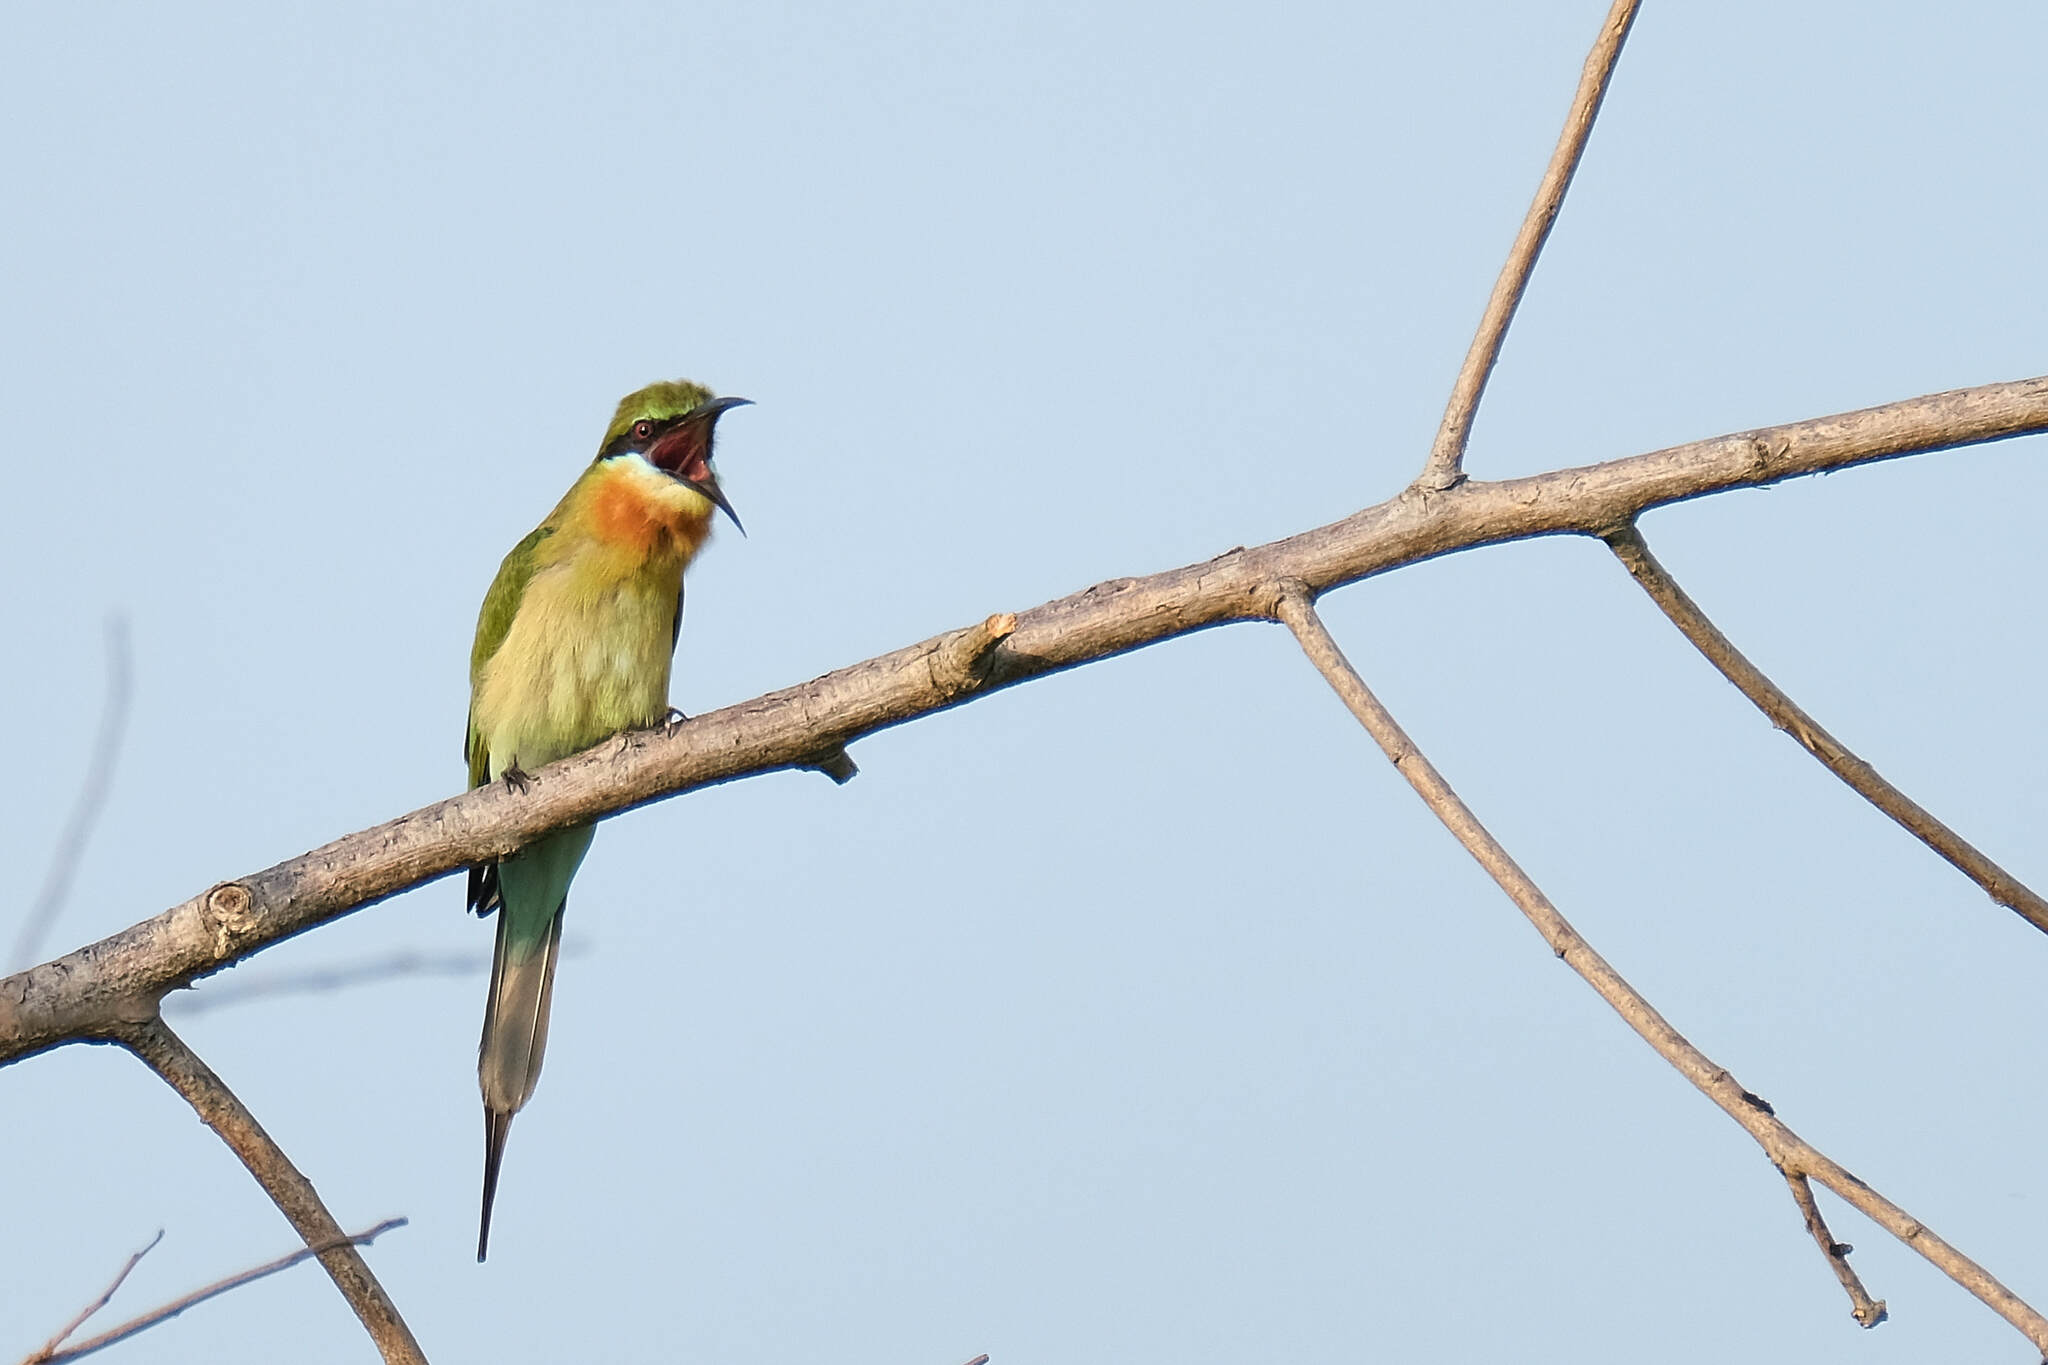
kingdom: Animalia
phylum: Chordata
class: Aves
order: Coraciiformes
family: Meropidae
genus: Merops
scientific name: Merops philippinus
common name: Blue-tailed bee-eater
